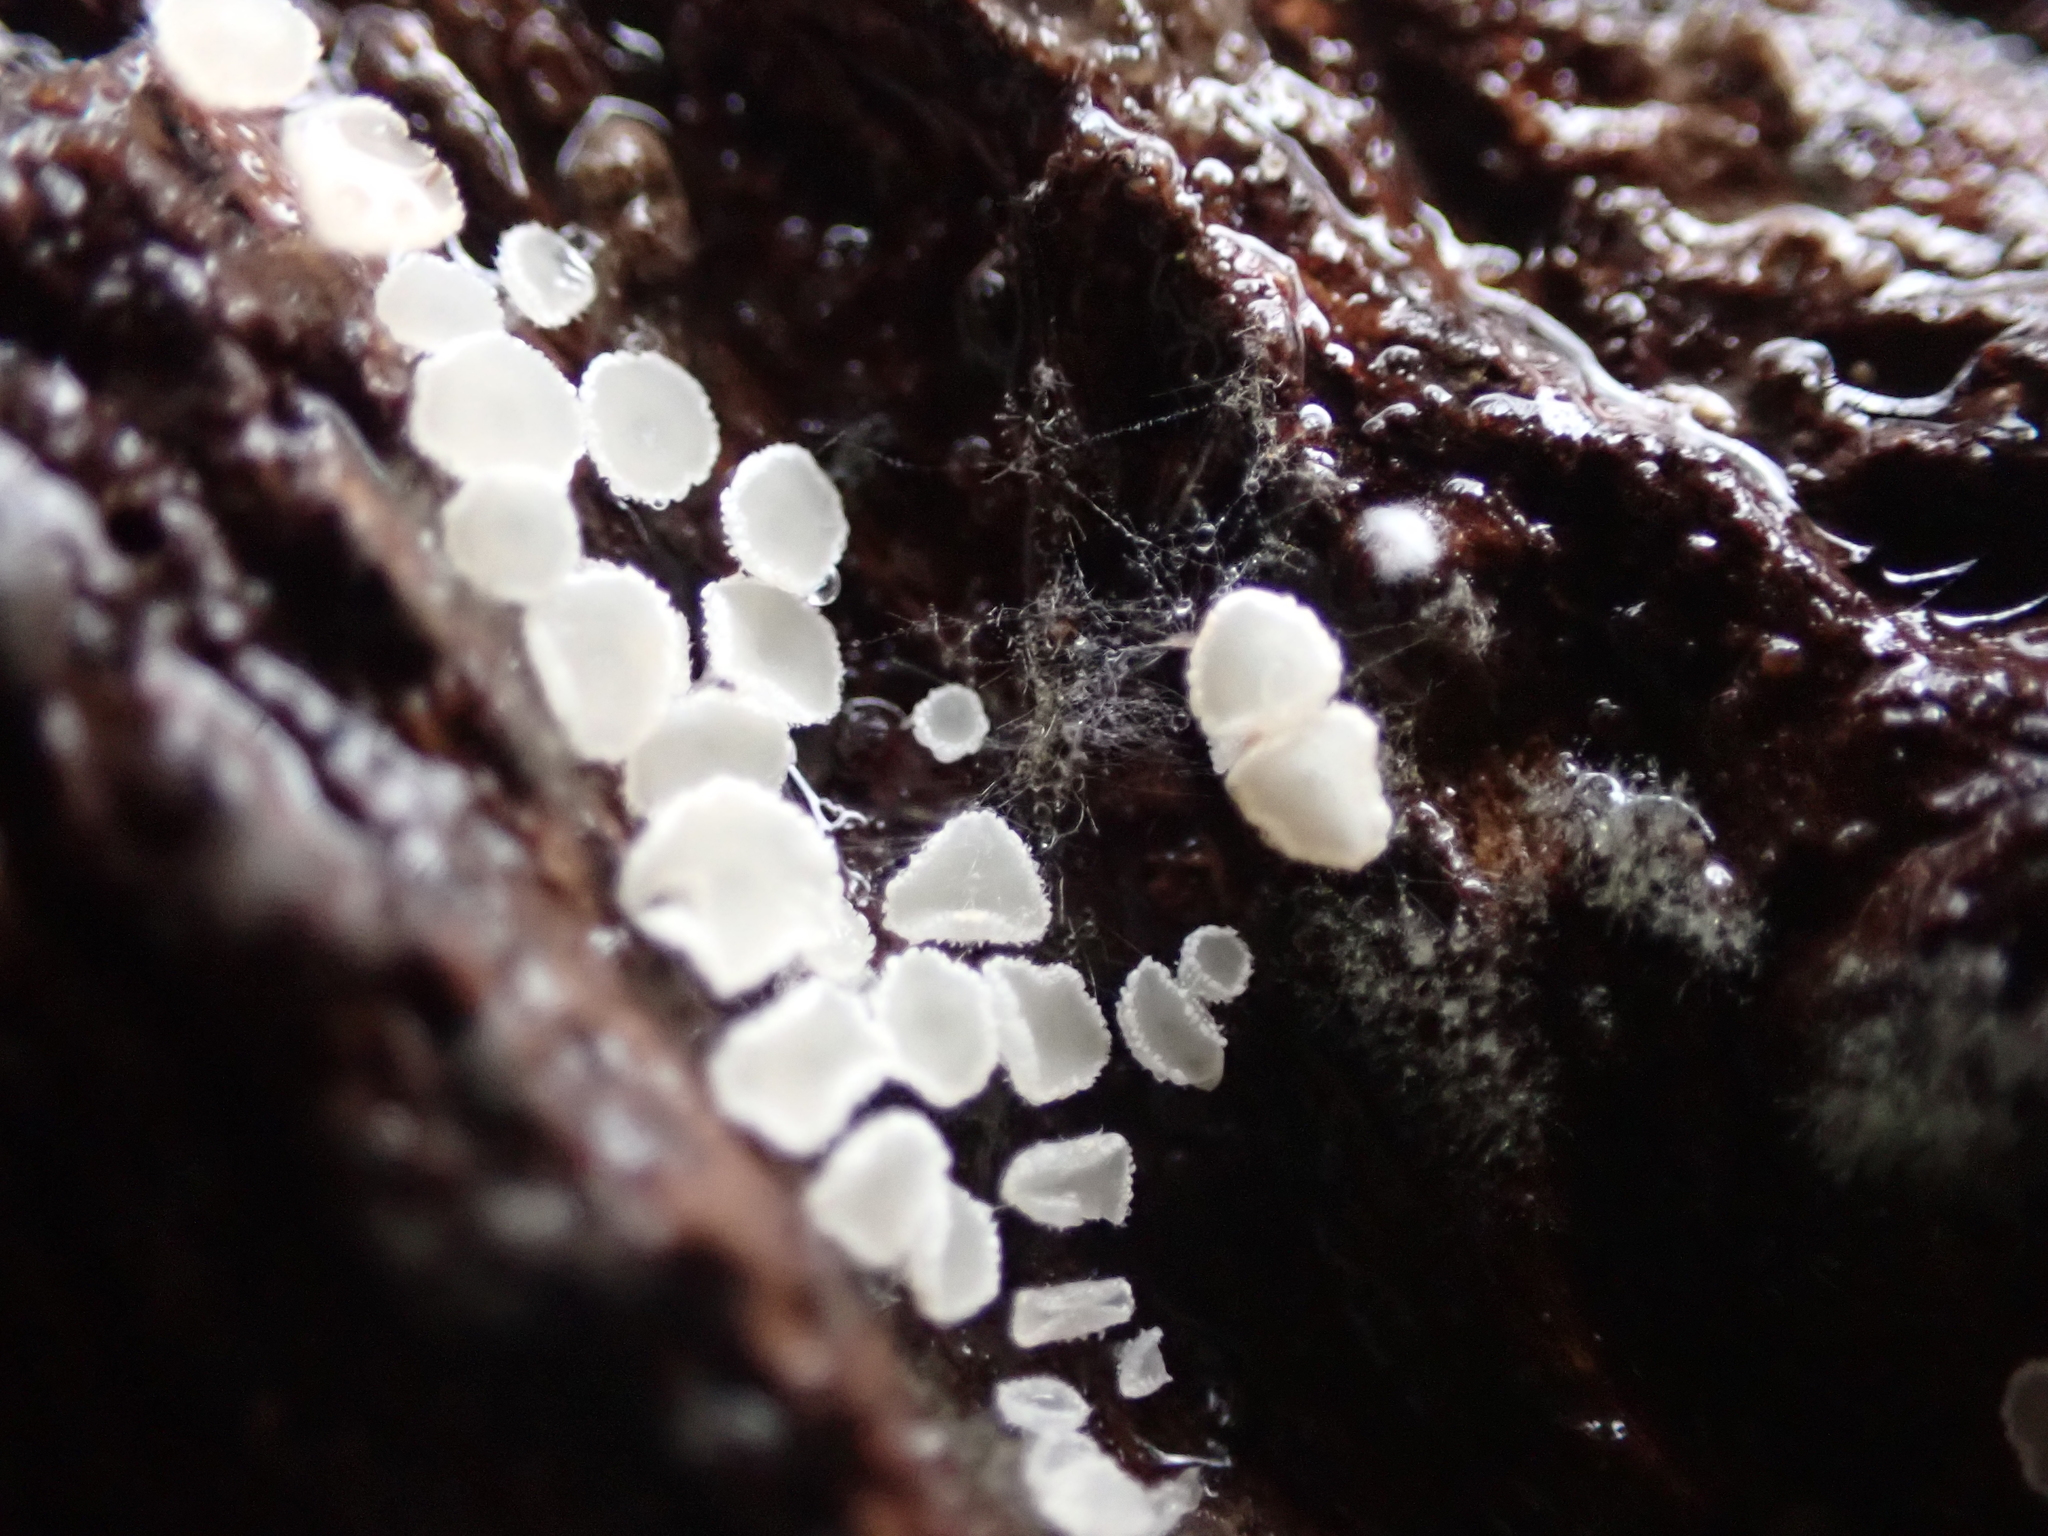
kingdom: Fungi
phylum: Ascomycota
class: Leotiomycetes
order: Helotiales
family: Lachnaceae
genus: Lachnum
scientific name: Lachnum virgineum
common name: Snowy disco
